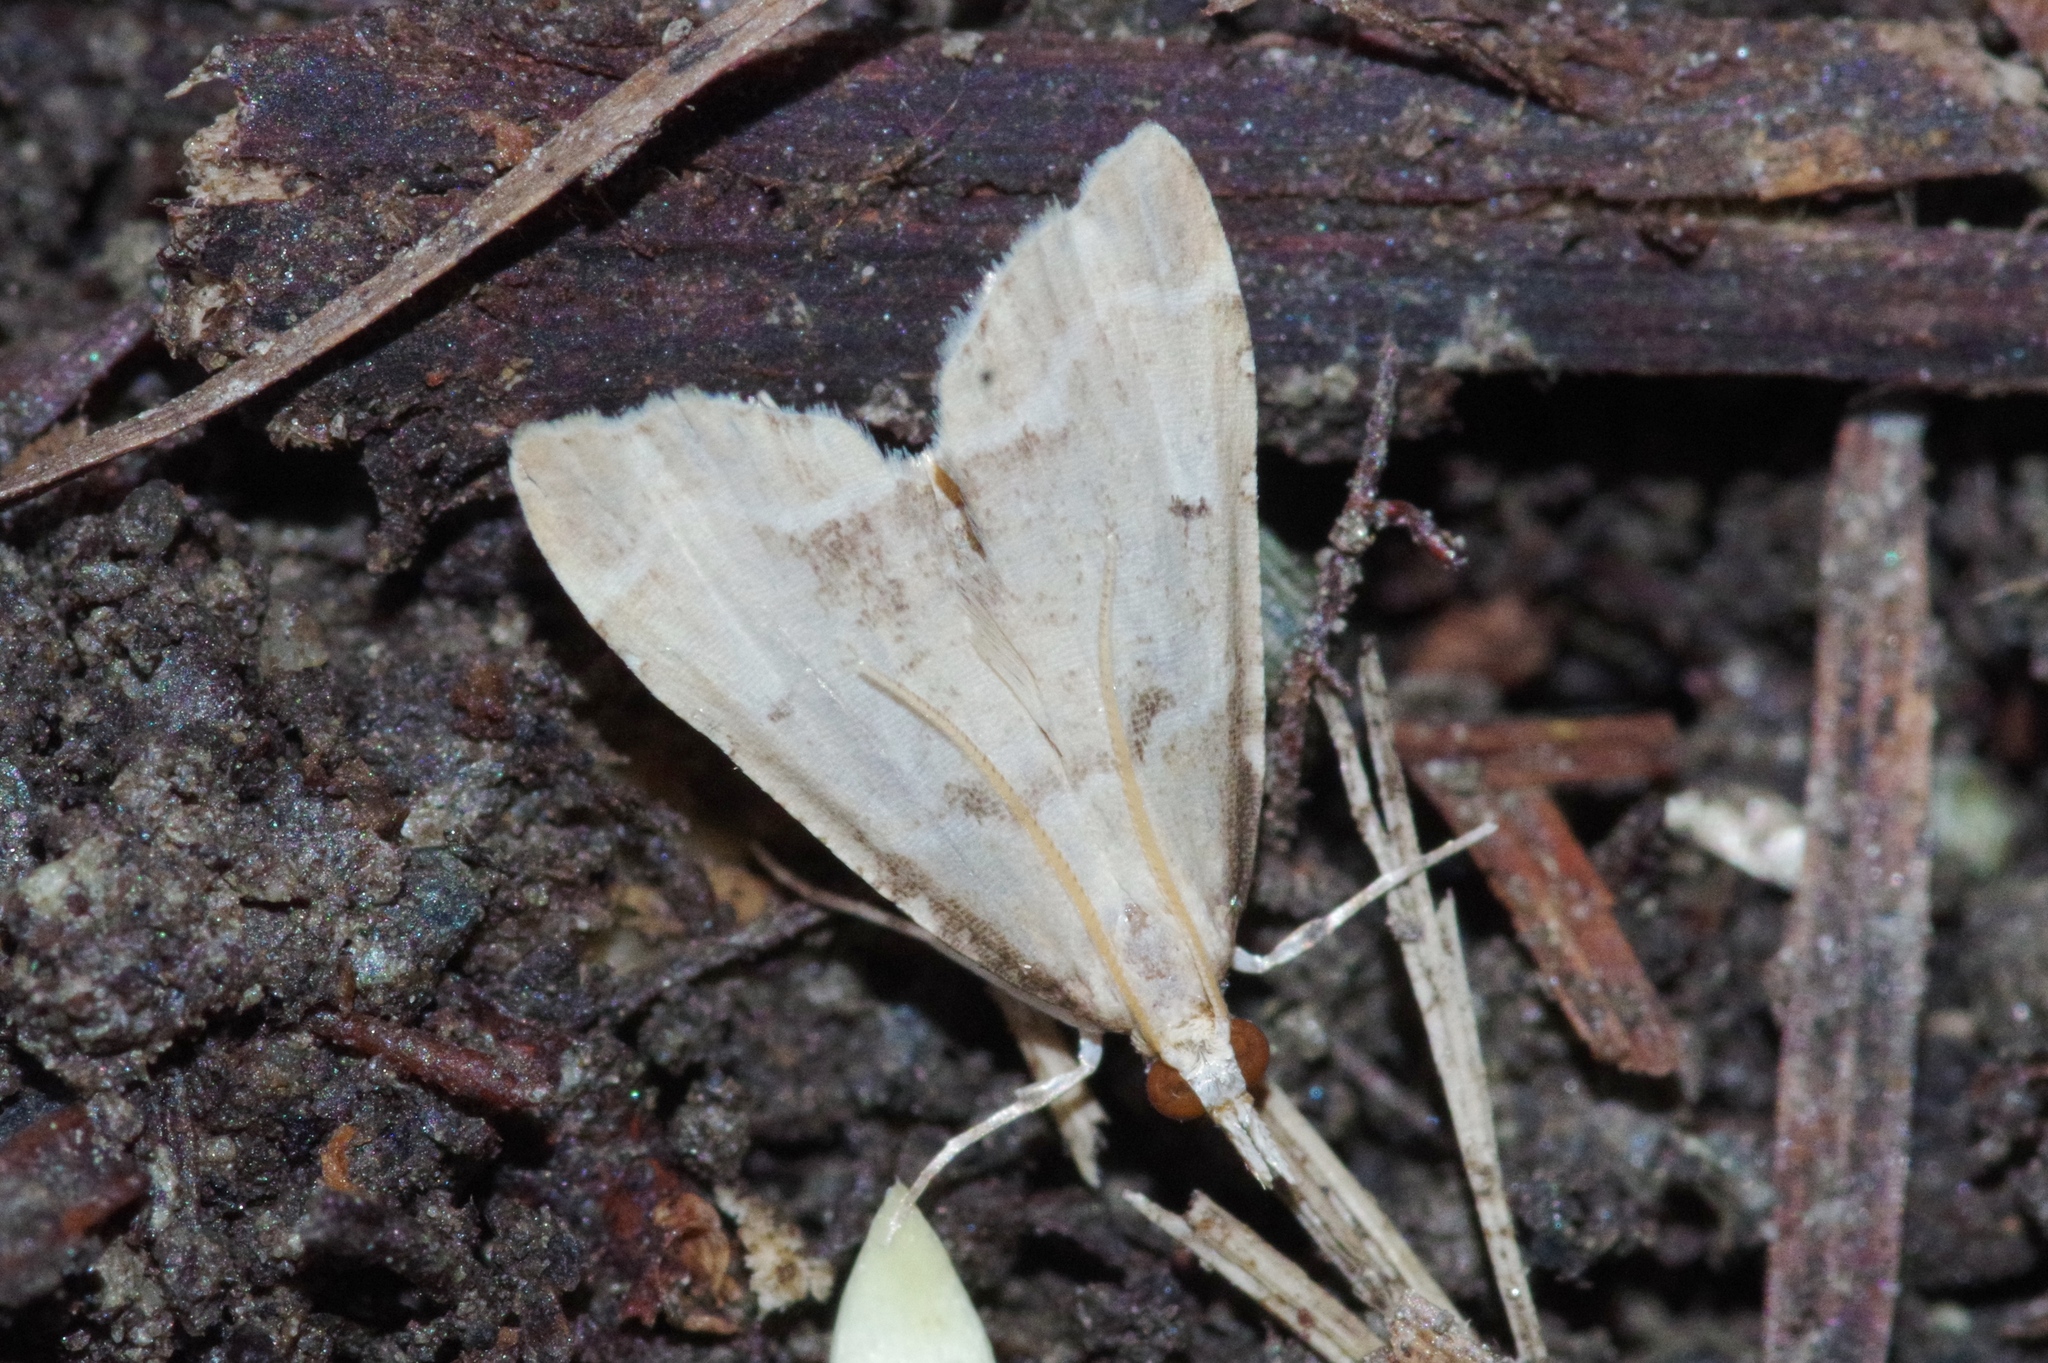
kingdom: Animalia
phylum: Arthropoda
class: Insecta
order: Lepidoptera
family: Crambidae
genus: Diplopseustis
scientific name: Diplopseustis perieresalis
